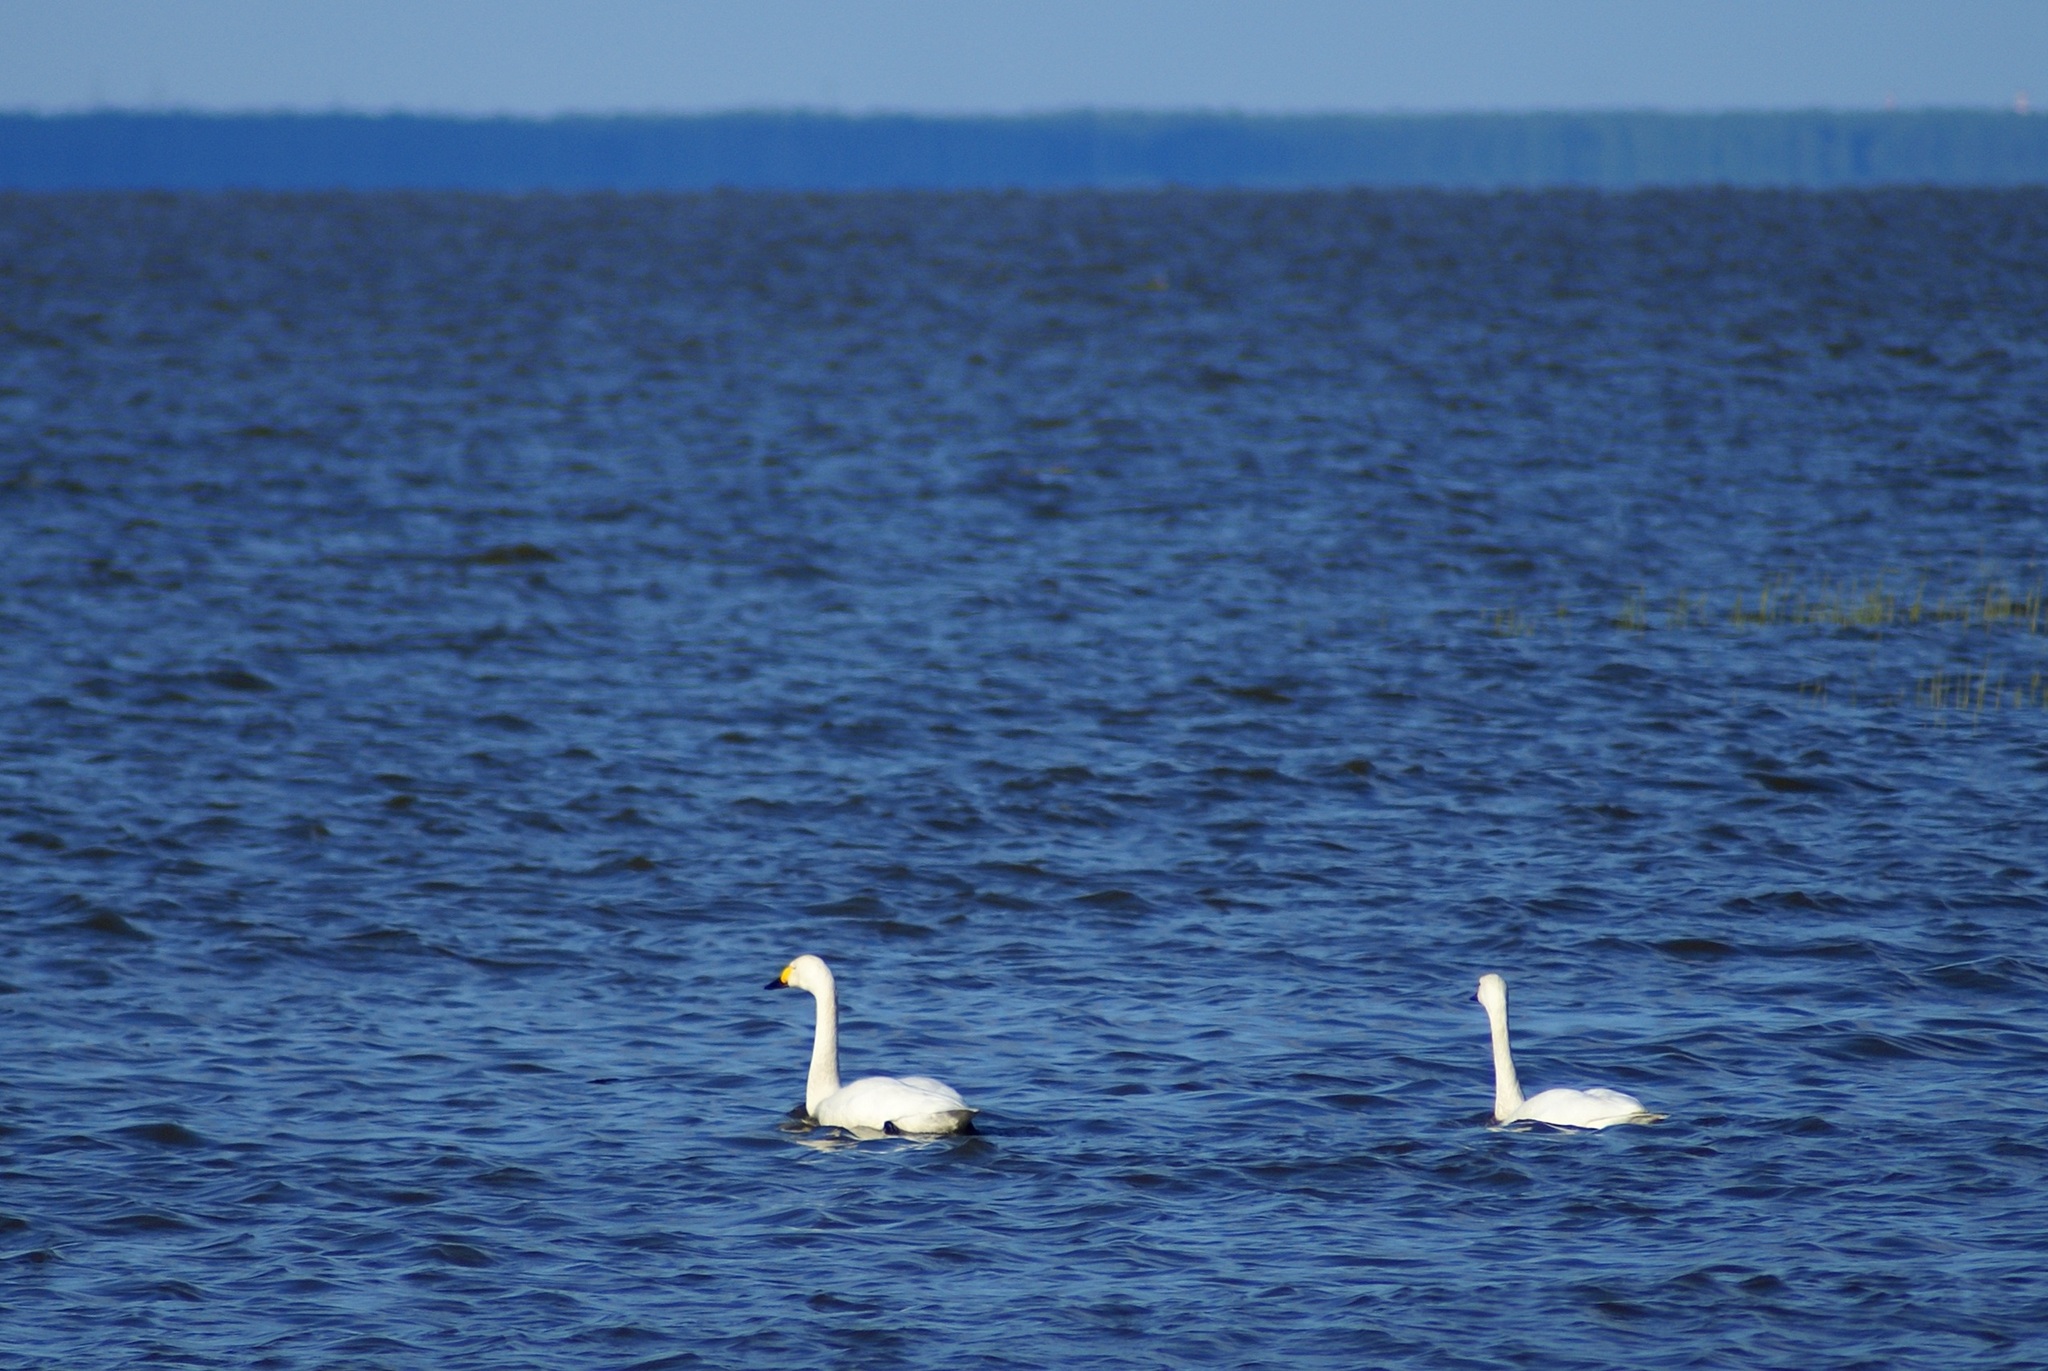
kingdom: Animalia
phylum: Chordata
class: Aves
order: Anseriformes
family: Anatidae
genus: Cygnus
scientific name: Cygnus columbianus
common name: Tundra swan
